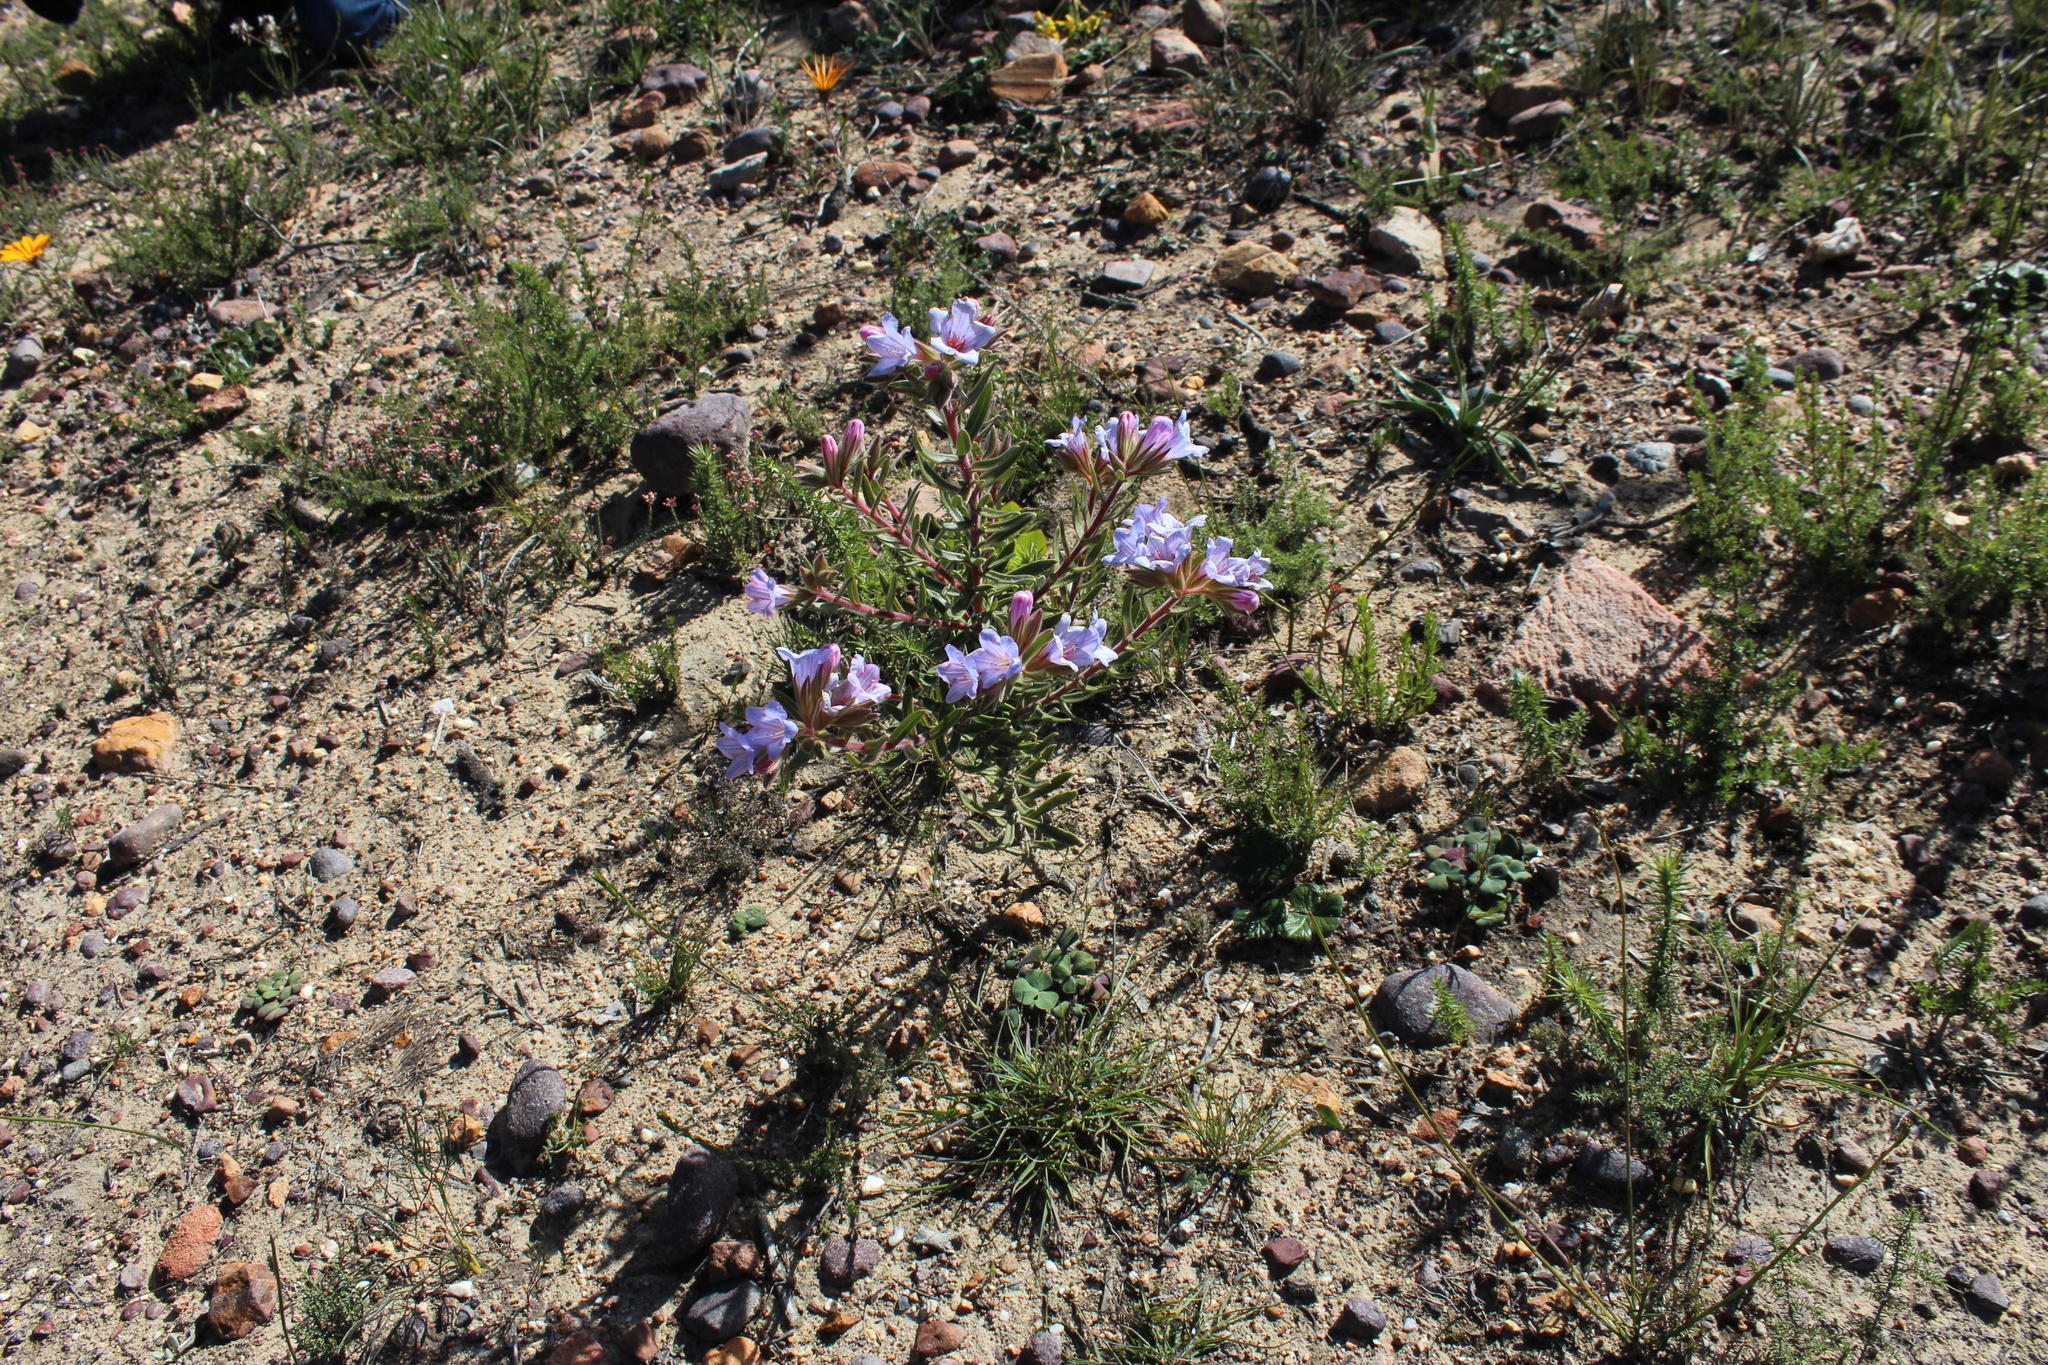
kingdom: Plantae
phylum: Tracheophyta
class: Magnoliopsida
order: Boraginales
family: Boraginaceae
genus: Lobostemon
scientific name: Lobostemon fruticosus
